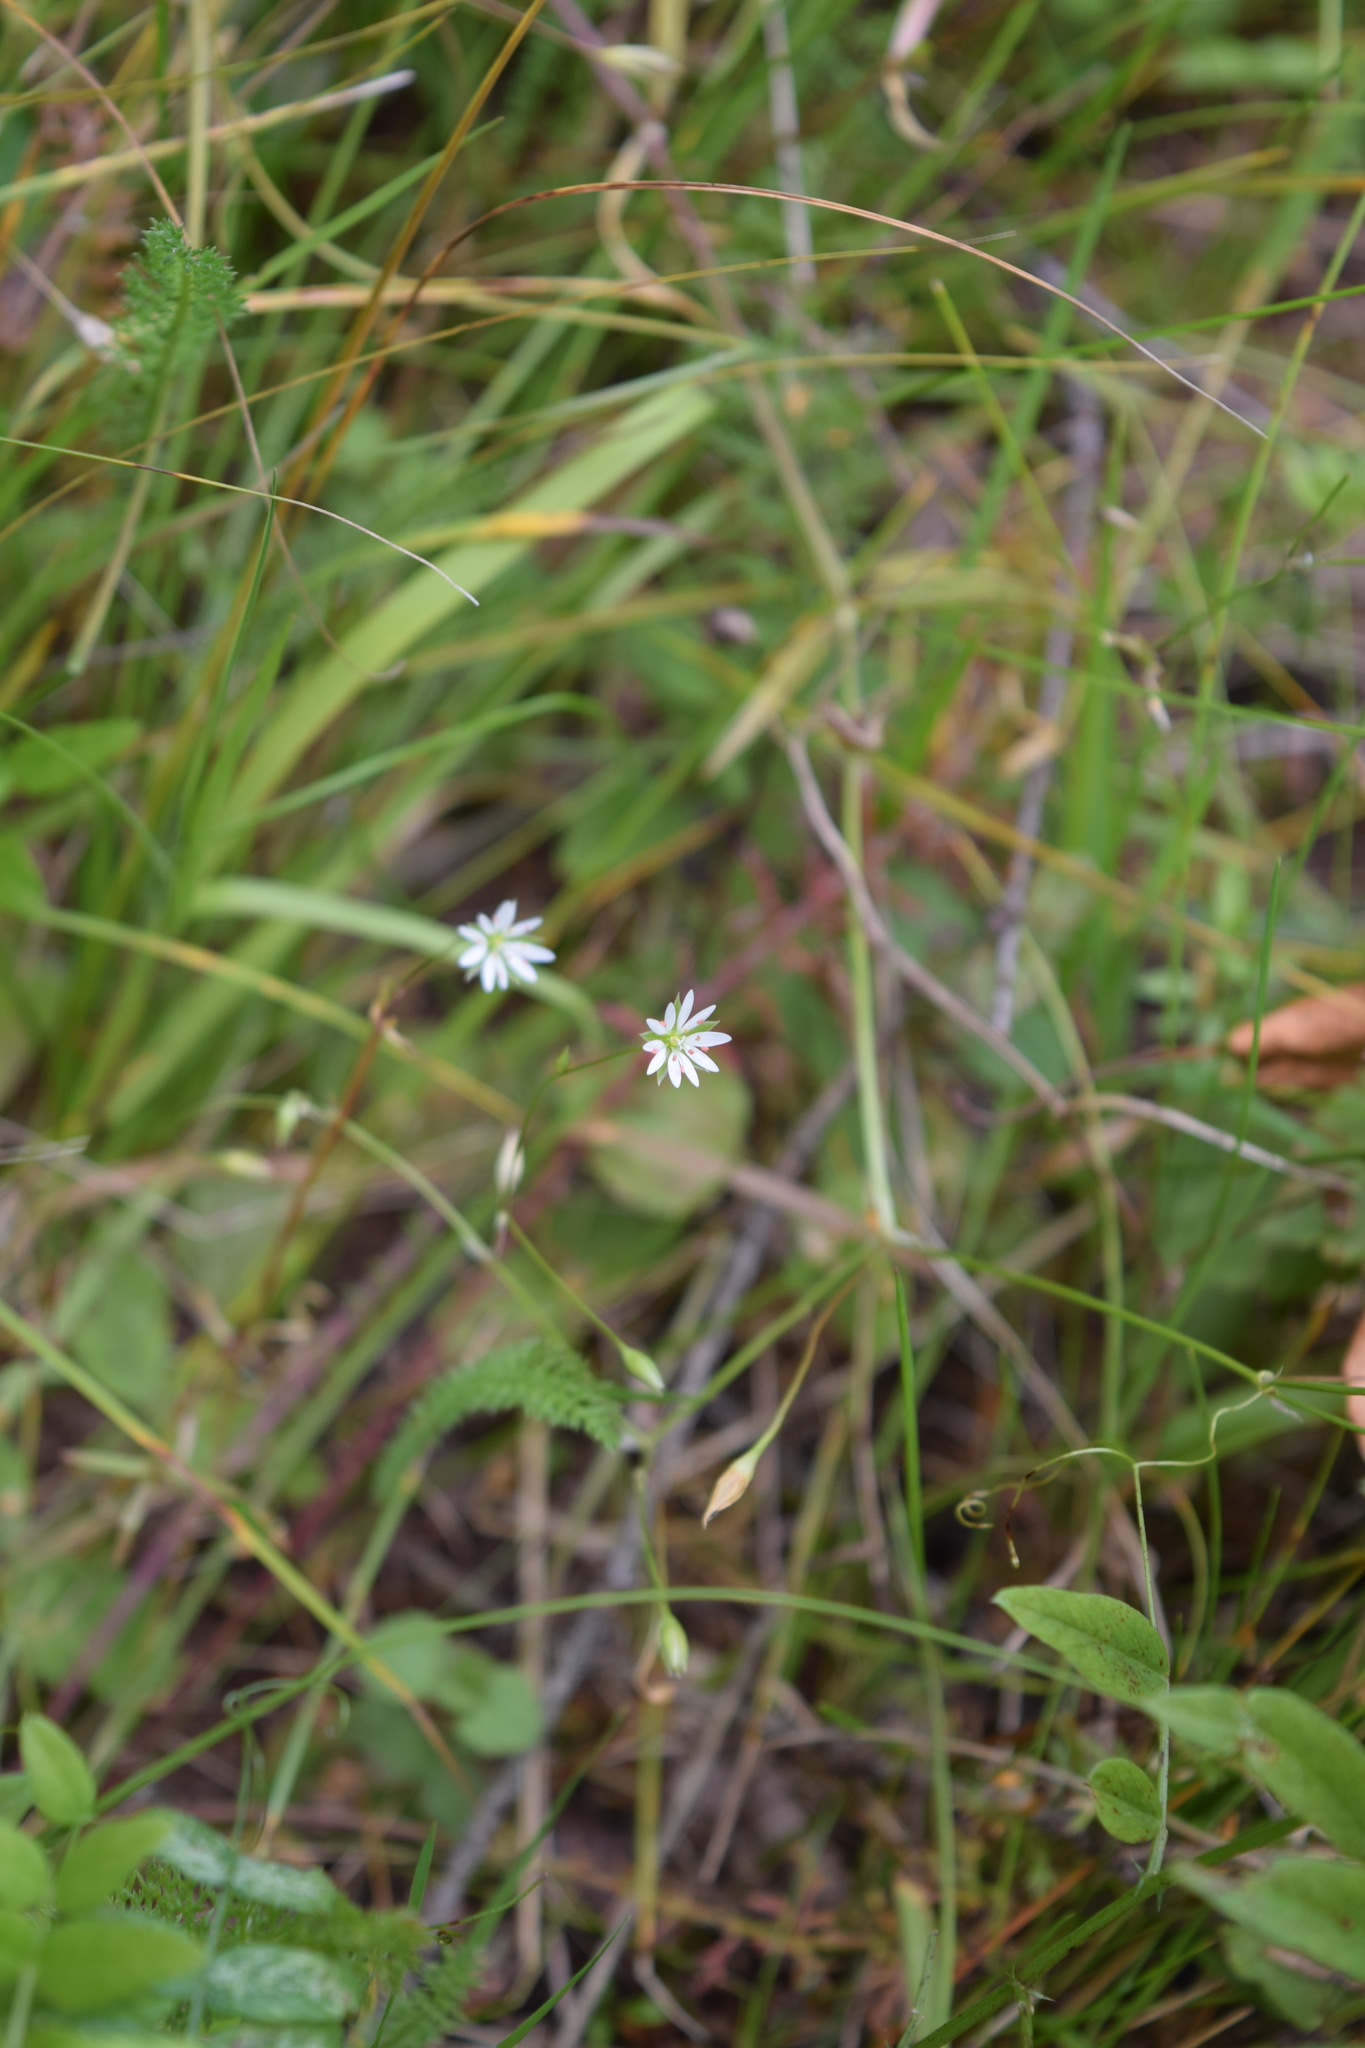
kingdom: Plantae
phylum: Tracheophyta
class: Magnoliopsida
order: Caryophyllales
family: Caryophyllaceae
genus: Stellaria
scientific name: Stellaria graminea
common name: Grass-like starwort
